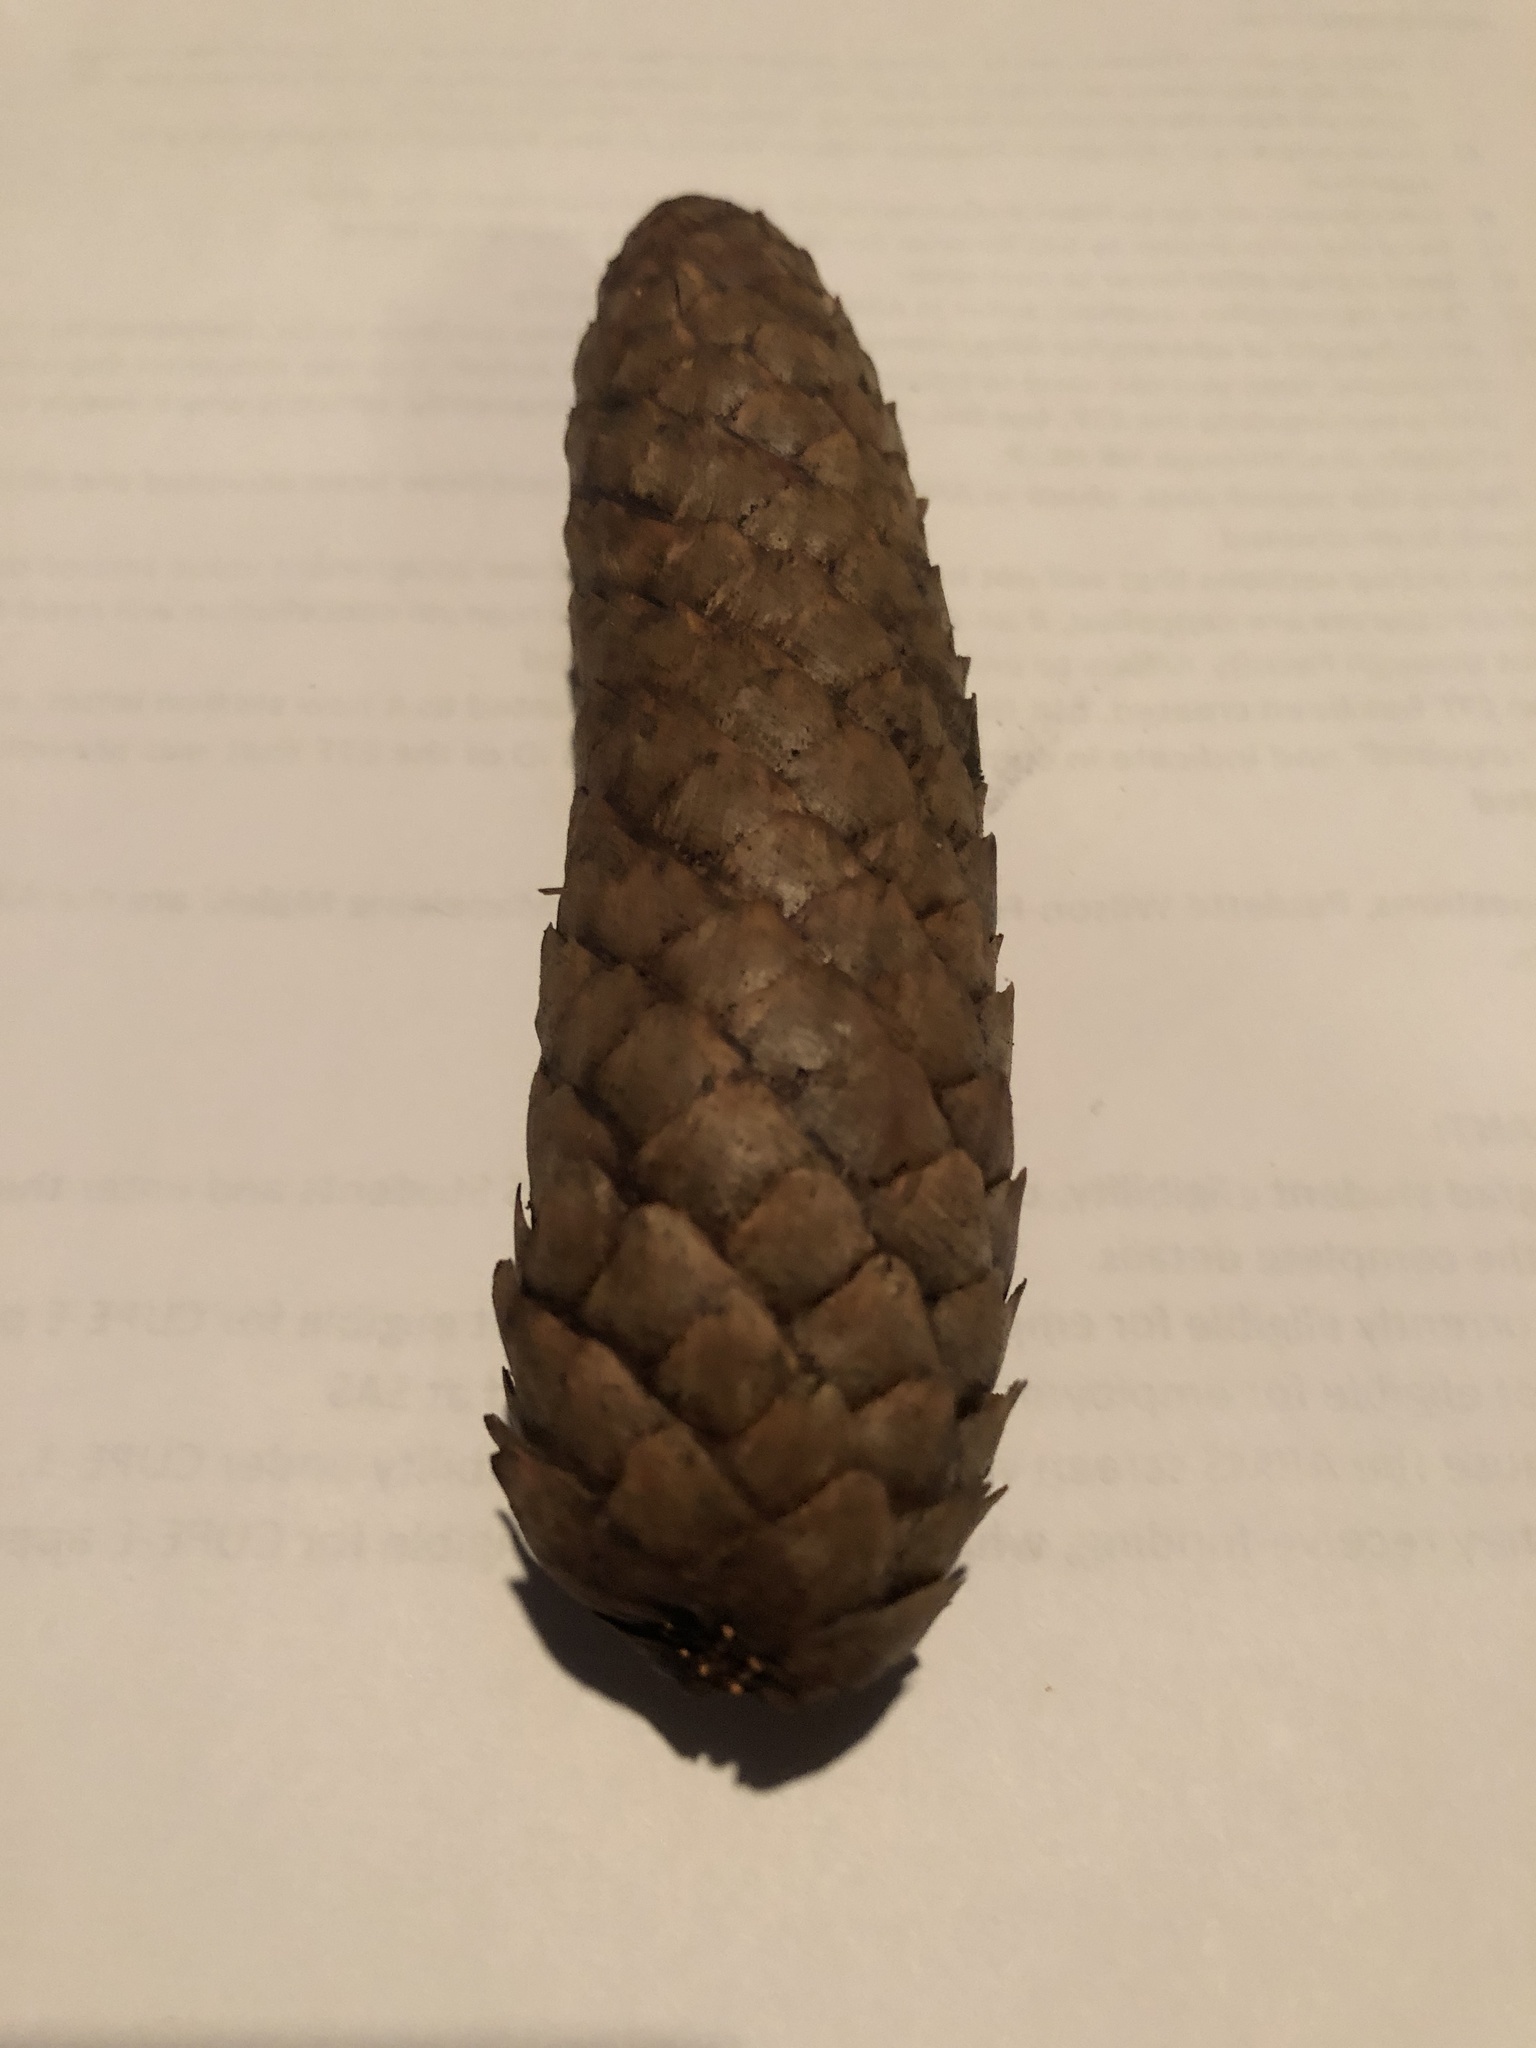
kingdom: Plantae
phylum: Tracheophyta
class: Pinopsida
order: Pinales
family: Pinaceae
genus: Picea
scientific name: Picea abies
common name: Norway spruce
